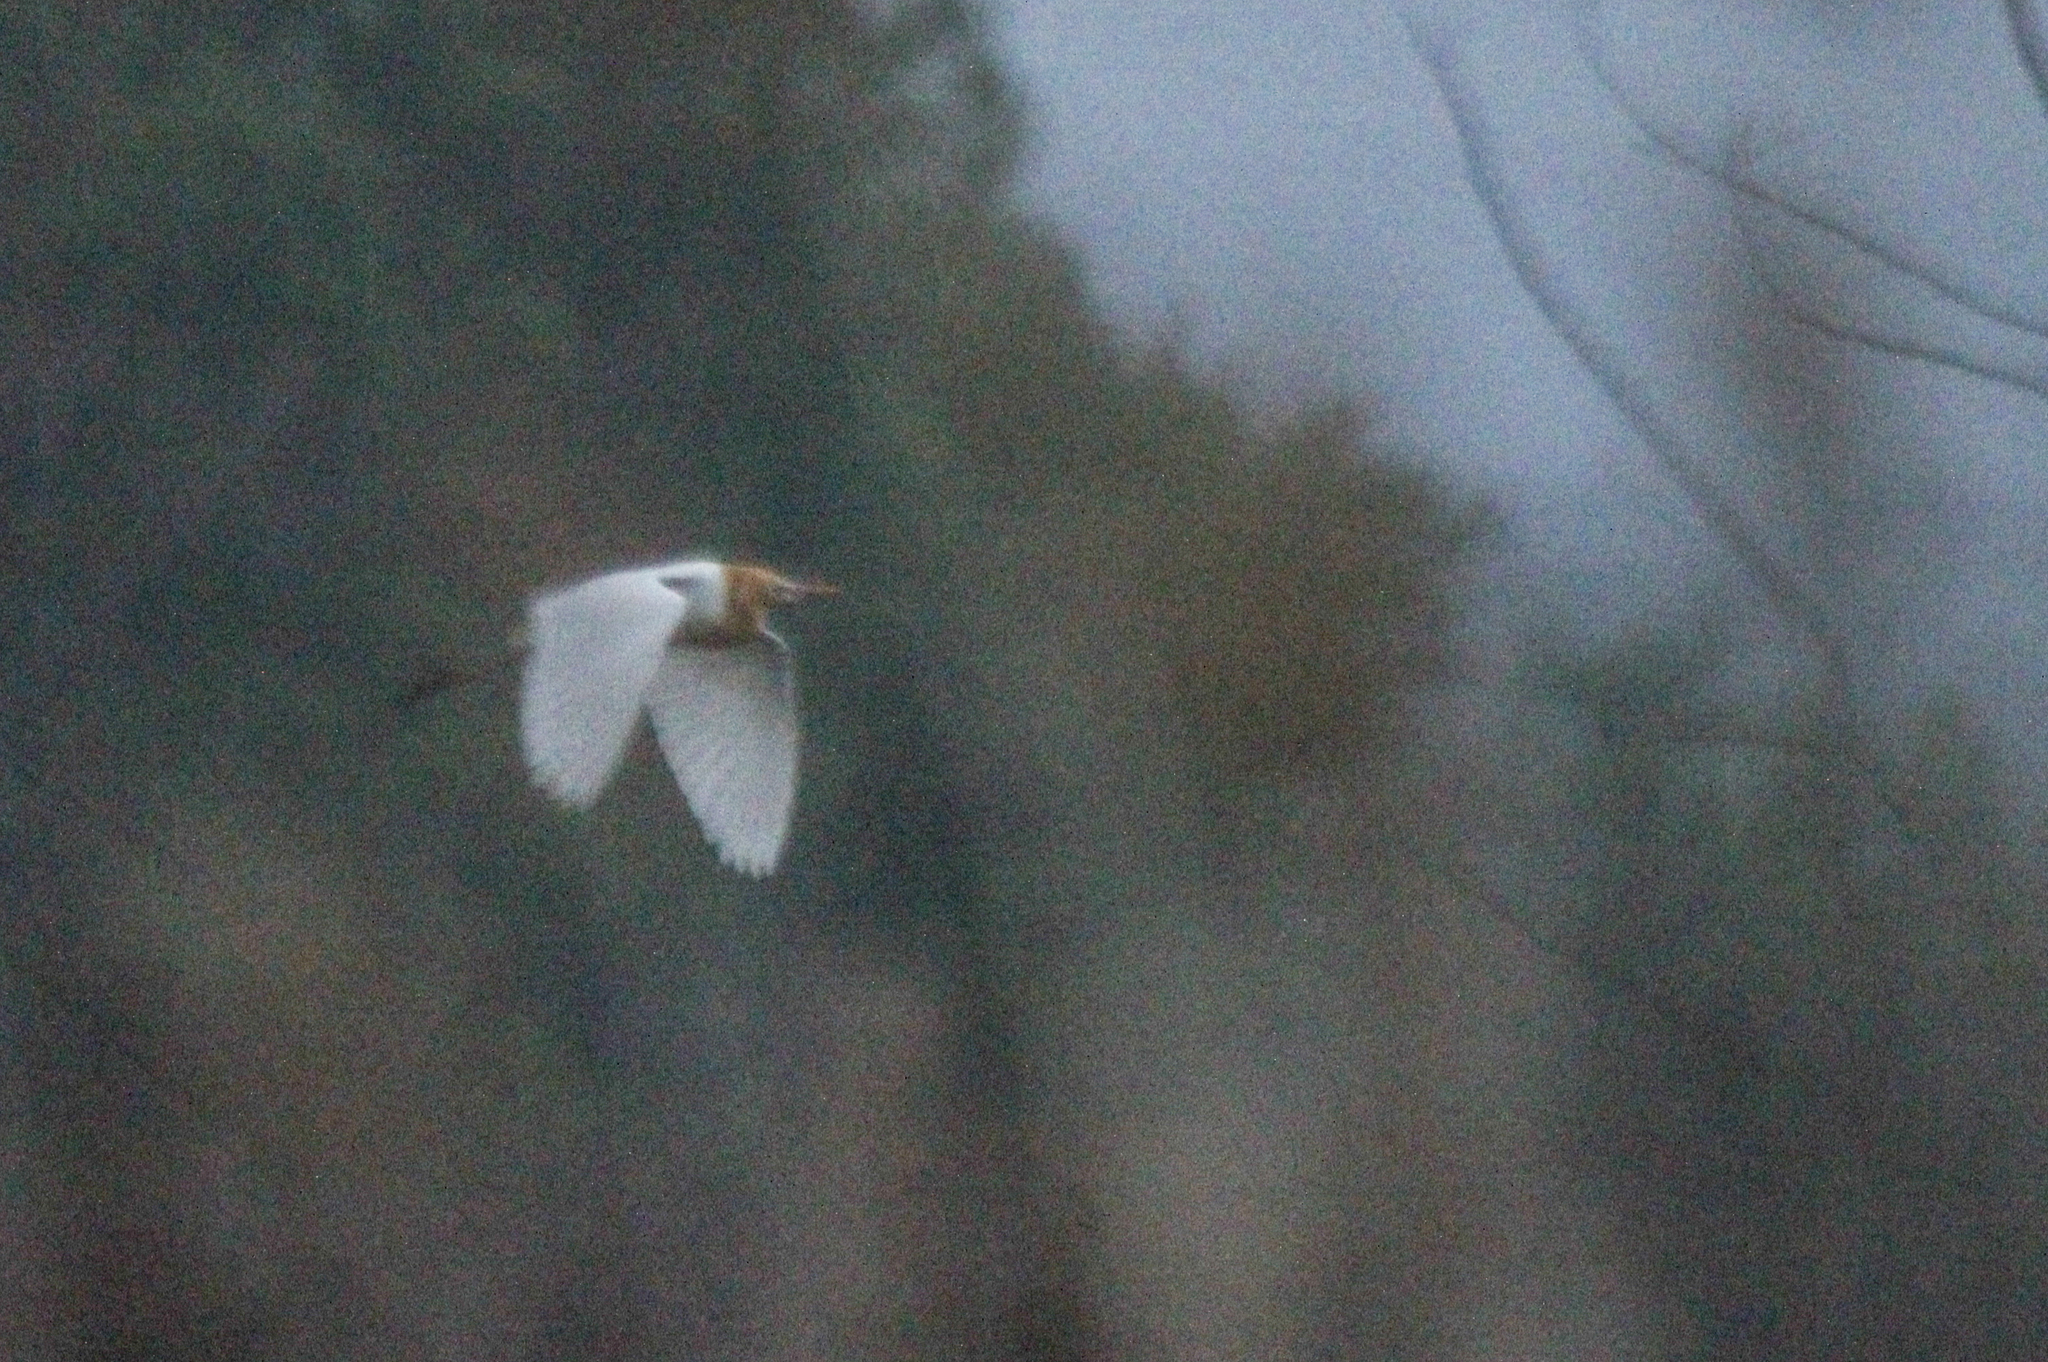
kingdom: Animalia
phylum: Chordata
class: Aves
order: Pelecaniformes
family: Ardeidae
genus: Bubulcus
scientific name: Bubulcus coromandus
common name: Eastern cattle egret
